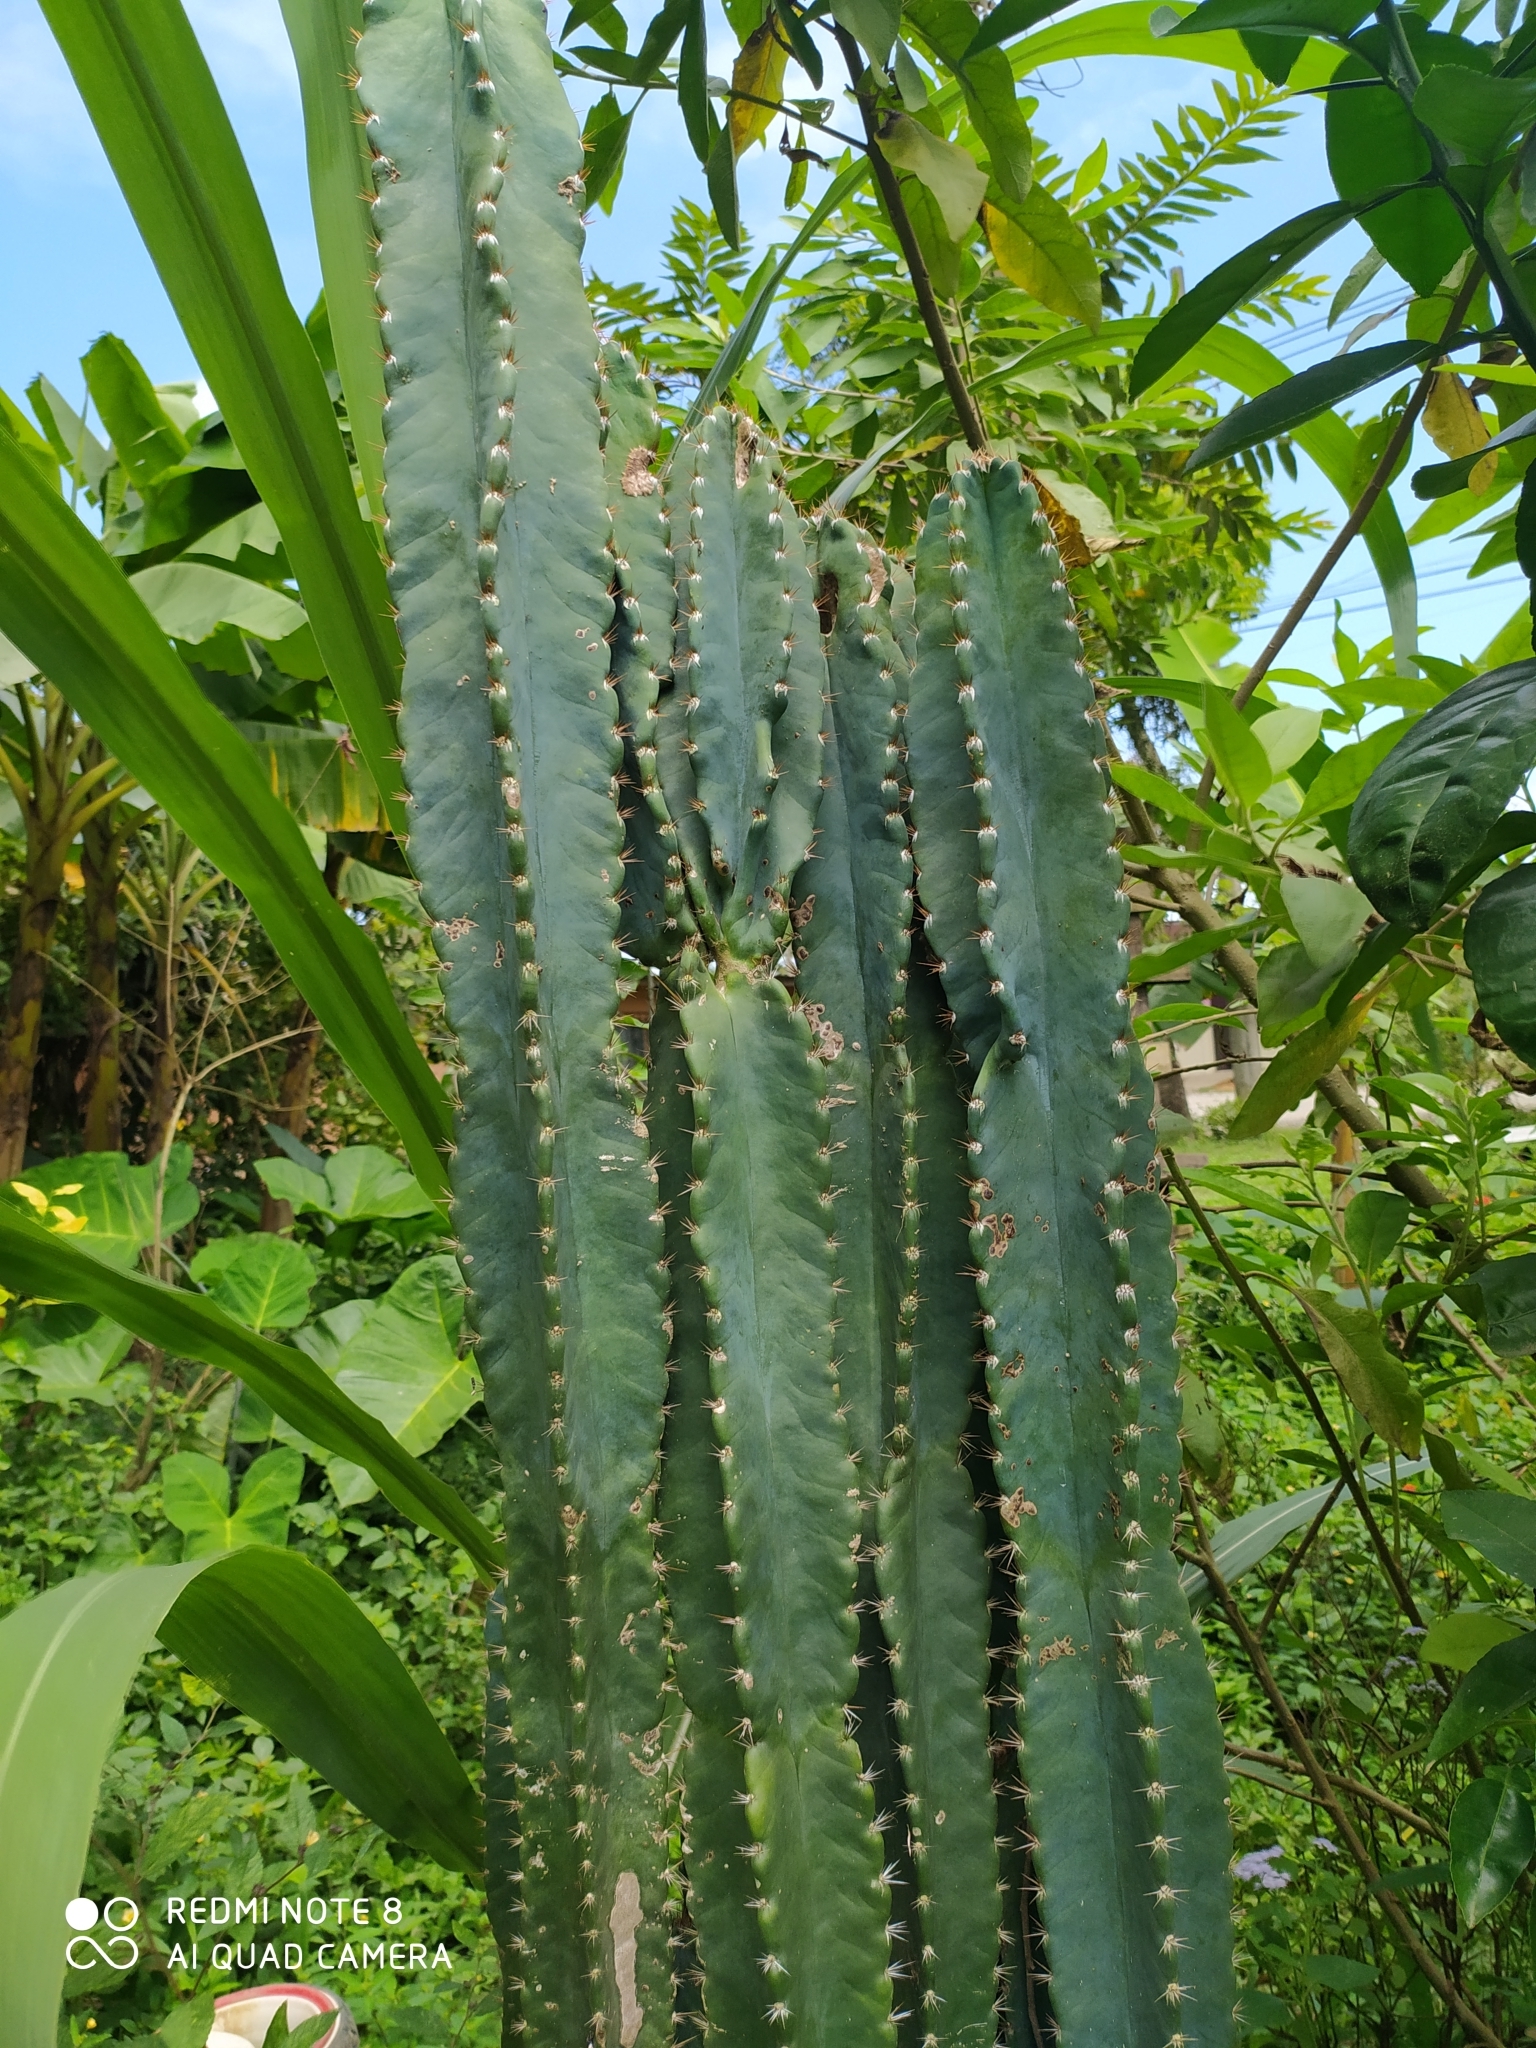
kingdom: Plantae
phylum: Tracheophyta
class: Magnoliopsida
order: Caryophyllales
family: Cactaceae
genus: Acanthocereus
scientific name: Acanthocereus tetragonus
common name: Triangle cactus
